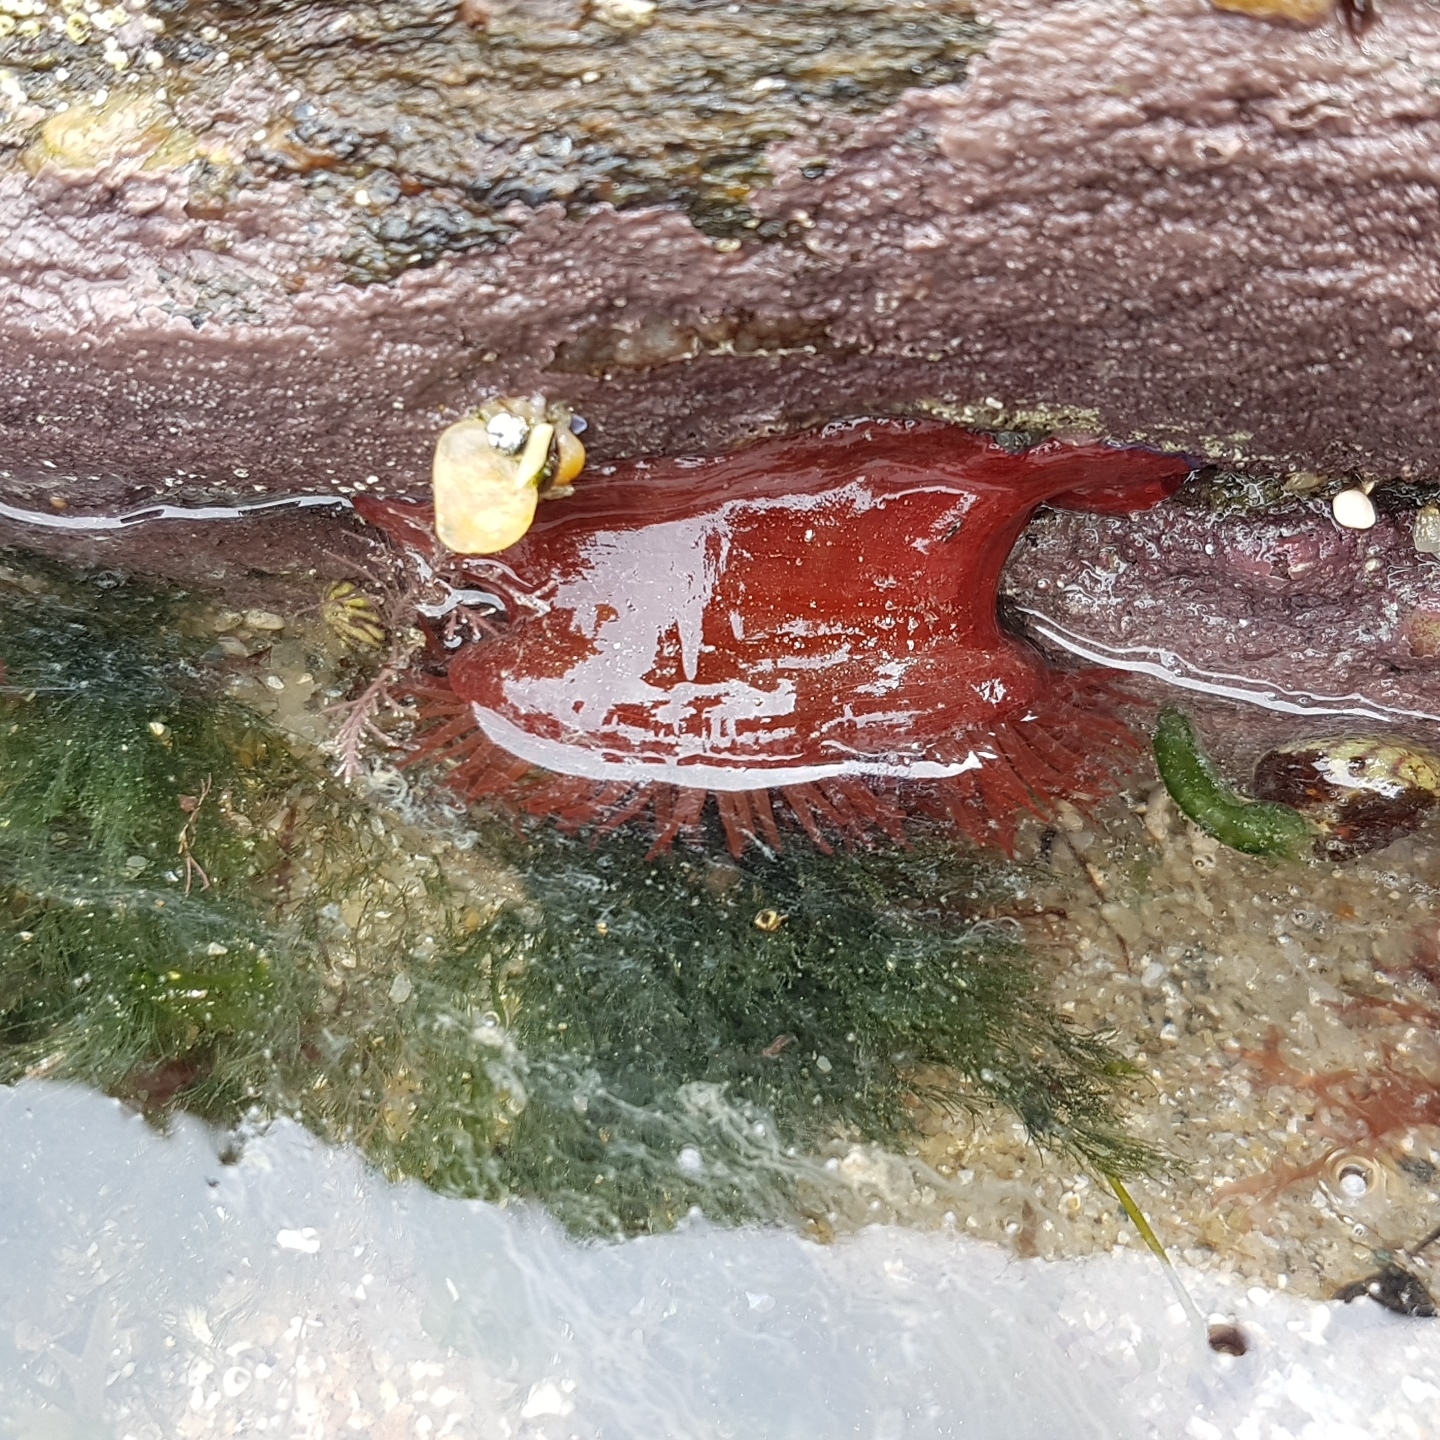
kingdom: Animalia
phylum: Cnidaria
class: Anthozoa
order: Actiniaria
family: Actiniidae
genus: Actinia
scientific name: Actinia equina
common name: Beadlet anemone
